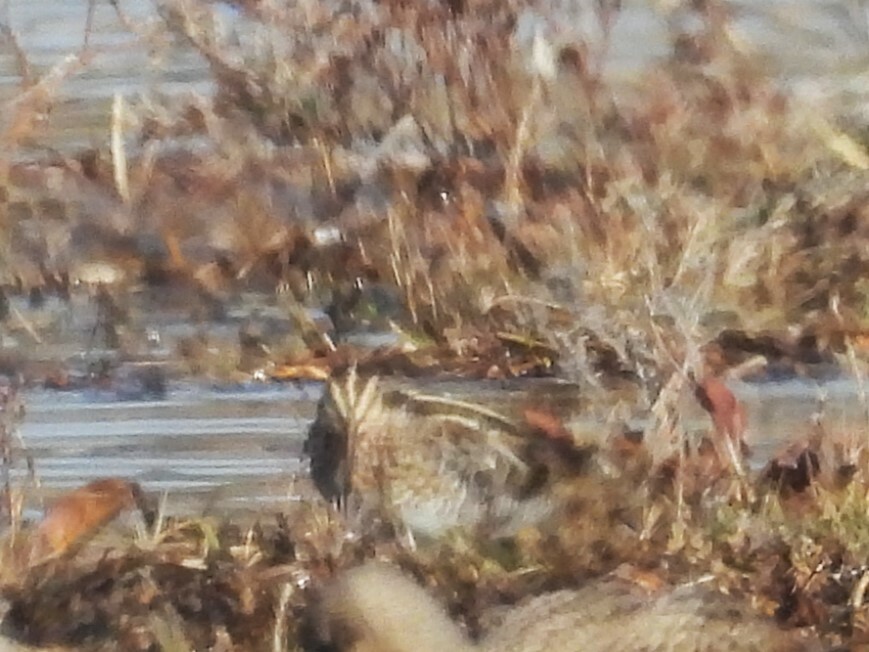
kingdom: Animalia
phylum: Chordata
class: Aves
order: Charadriiformes
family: Scolopacidae
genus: Gallinago
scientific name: Gallinago delicata
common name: Wilson's snipe
